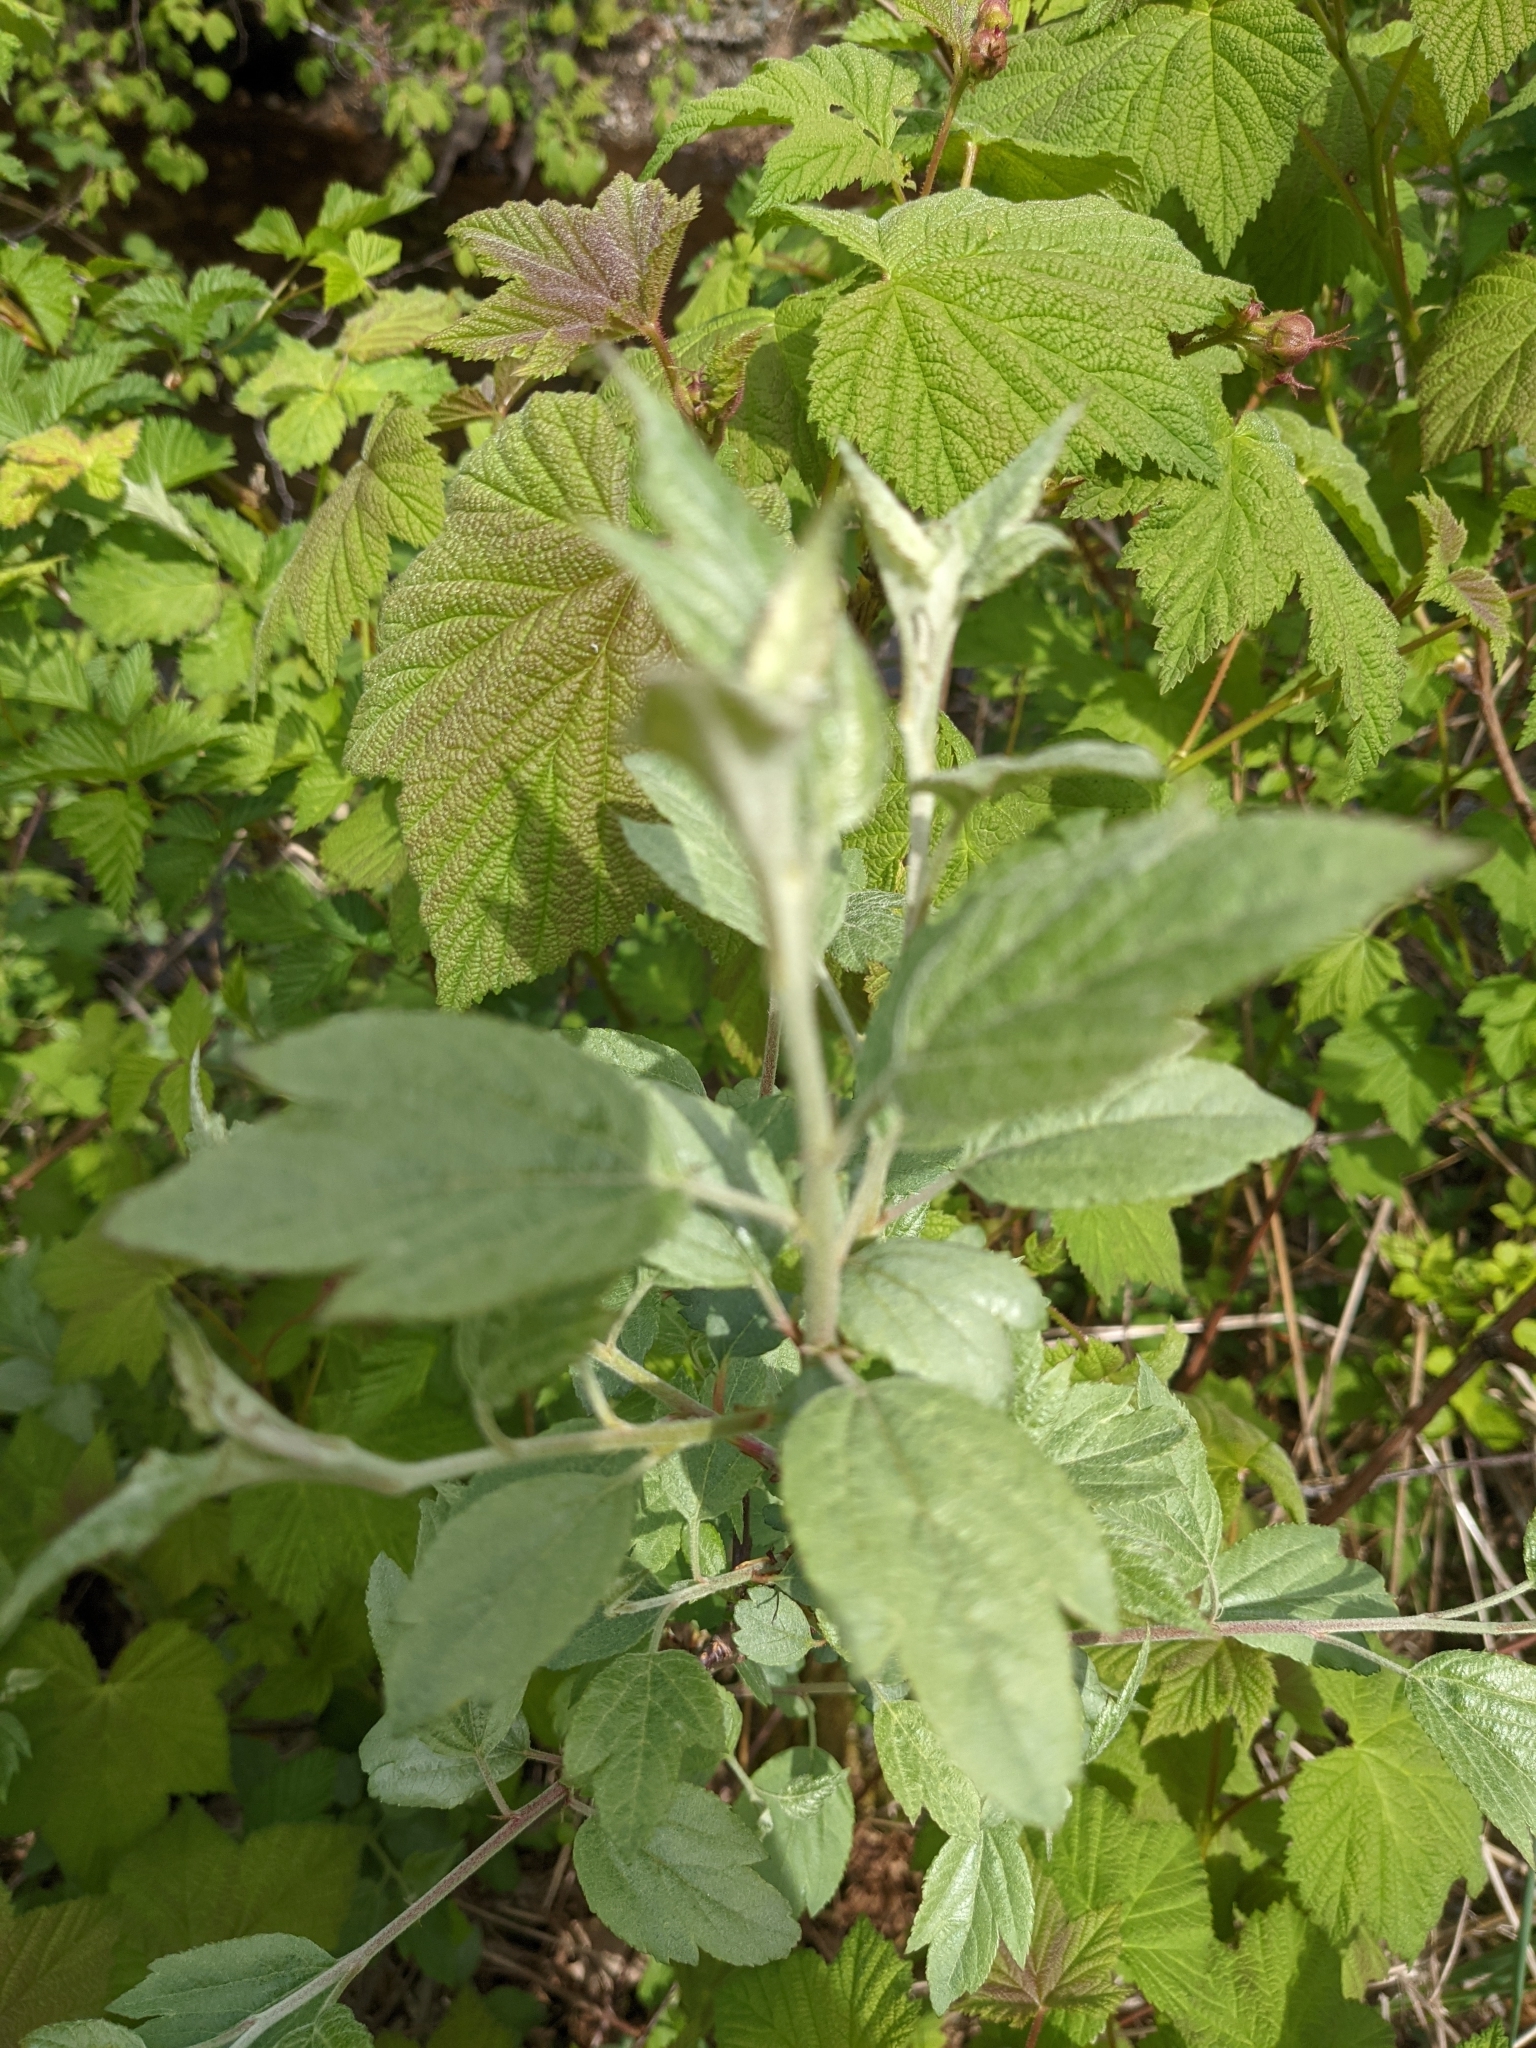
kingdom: Plantae
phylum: Tracheophyta
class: Magnoliopsida
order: Rosales
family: Urticaceae
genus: Urtica
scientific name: Urtica dioica
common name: Common nettle
